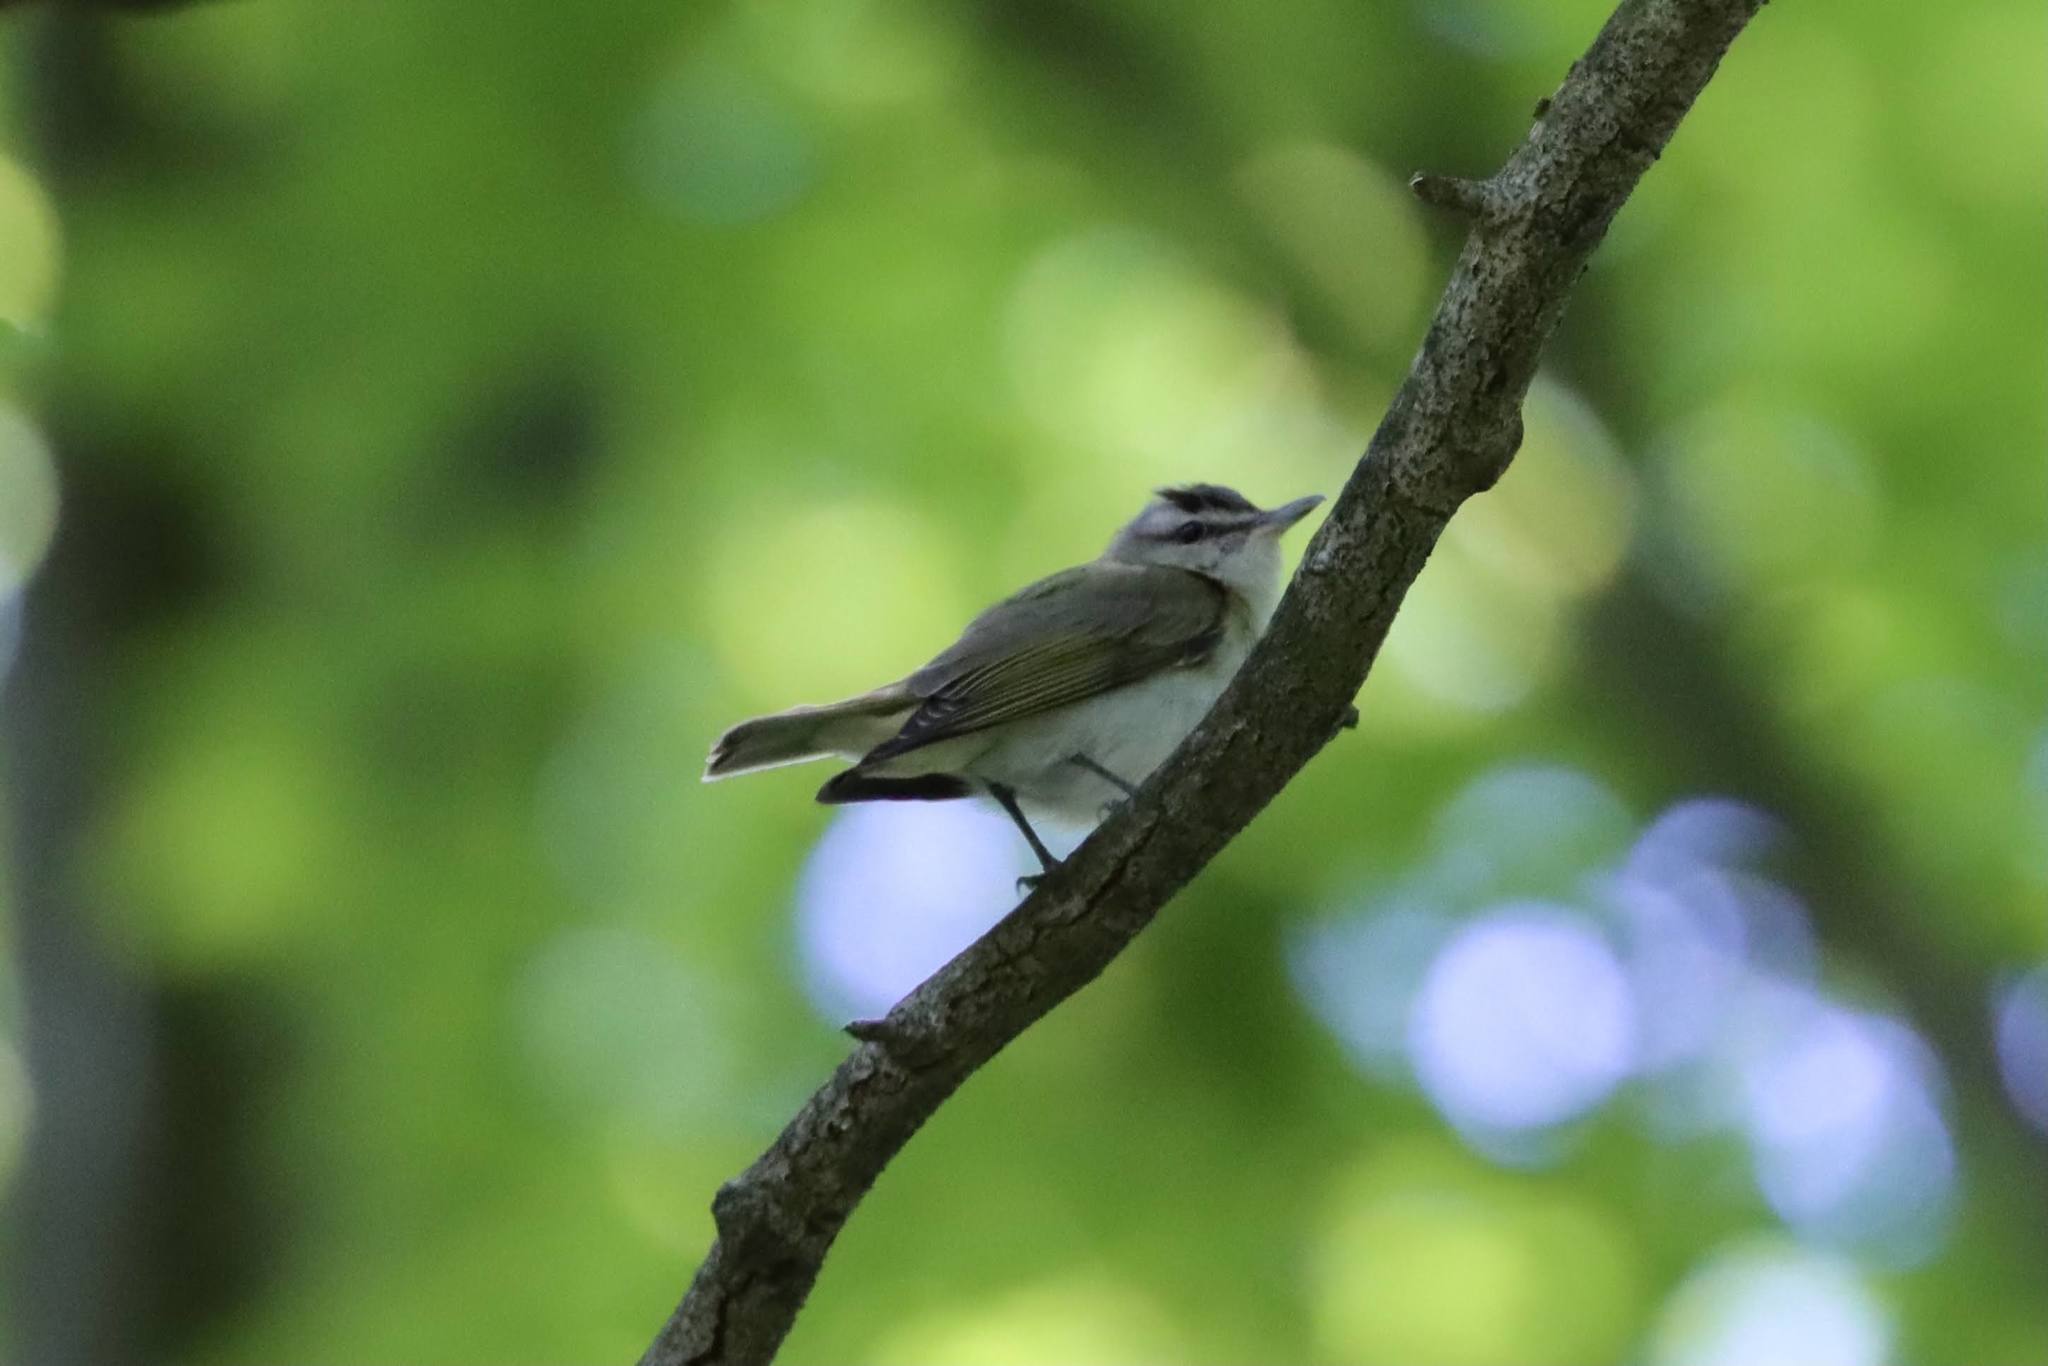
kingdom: Animalia
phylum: Chordata
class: Aves
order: Passeriformes
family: Vireonidae
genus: Vireo
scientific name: Vireo olivaceus
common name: Red-eyed vireo
